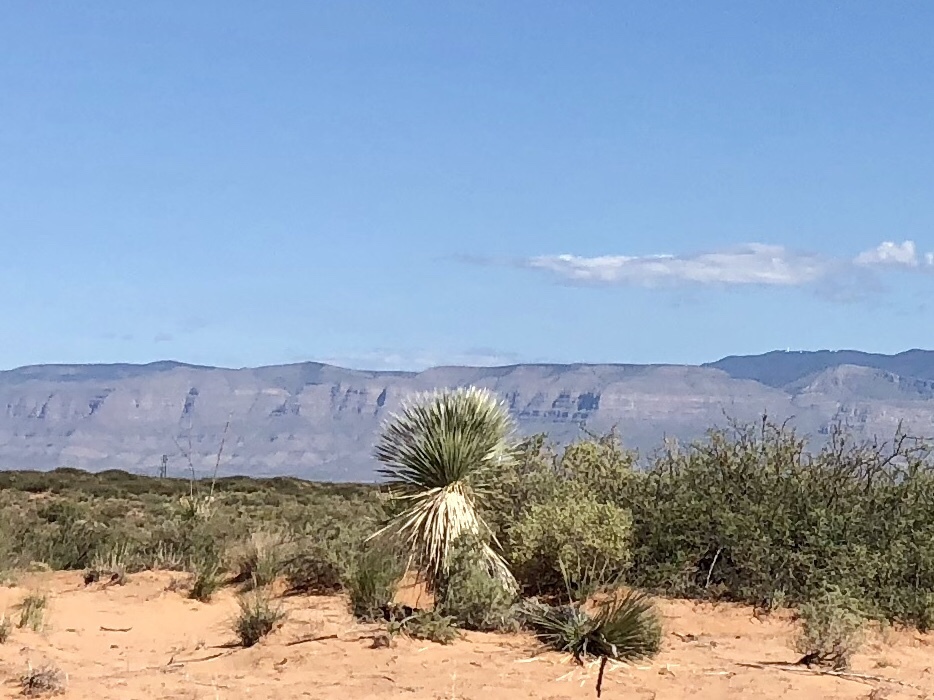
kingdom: Plantae
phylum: Tracheophyta
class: Liliopsida
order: Asparagales
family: Asparagaceae
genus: Yucca
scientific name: Yucca elata
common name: Palmella
